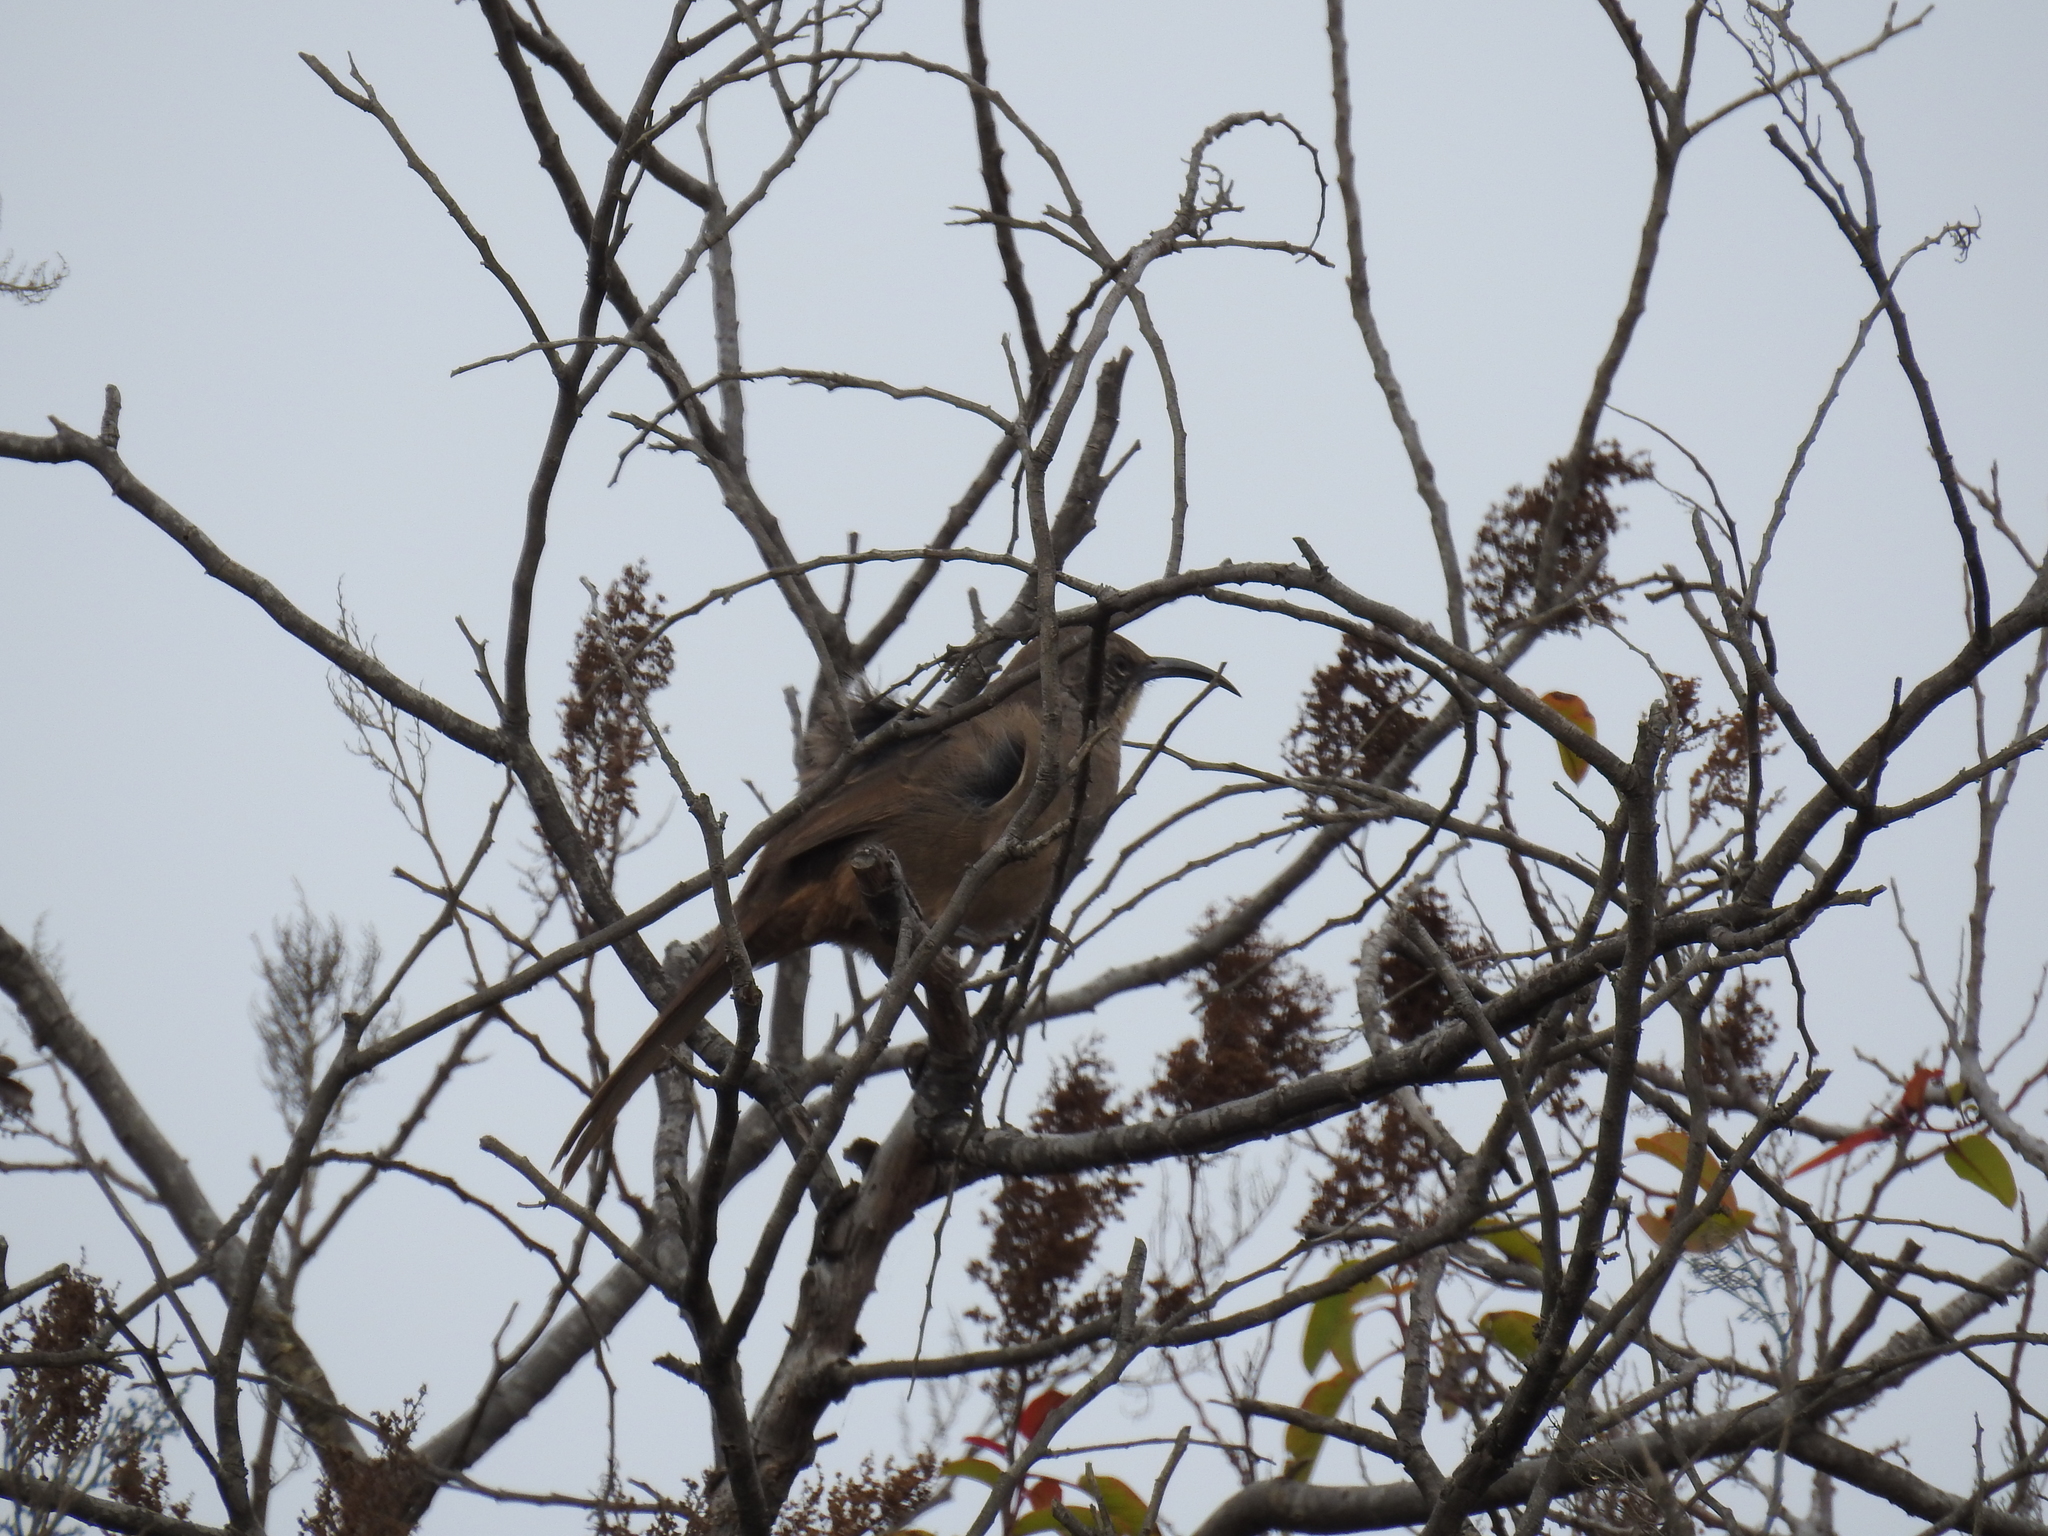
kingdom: Animalia
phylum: Chordata
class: Aves
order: Passeriformes
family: Mimidae
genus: Toxostoma
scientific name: Toxostoma redivivum
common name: California thrasher
